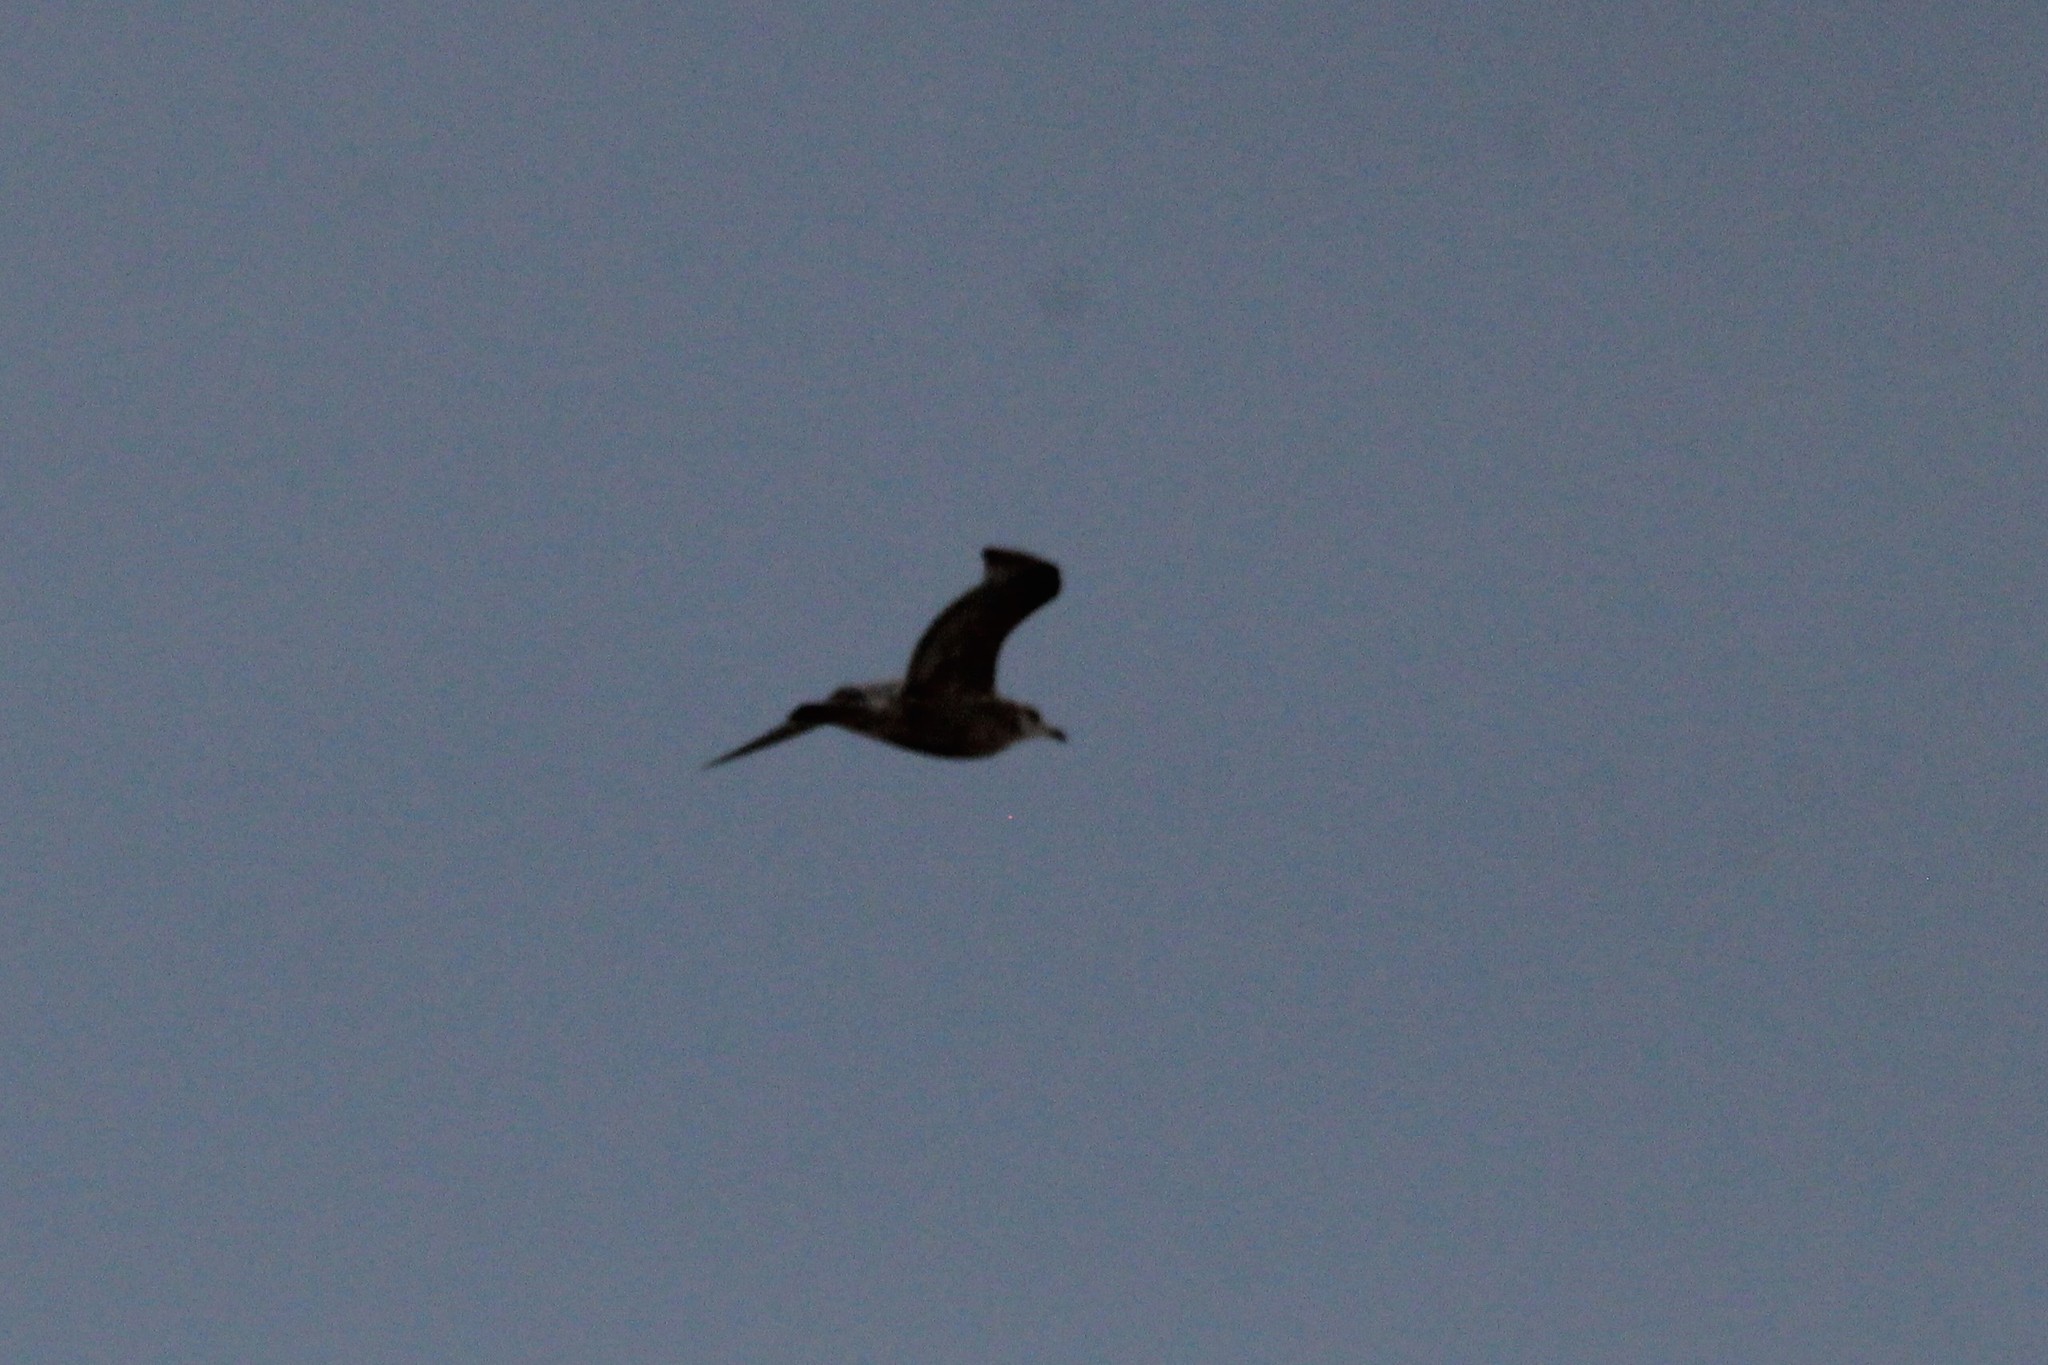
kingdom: Animalia
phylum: Chordata
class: Aves
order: Charadriiformes
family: Laridae
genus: Larus
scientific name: Larus argentatus
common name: Herring gull
